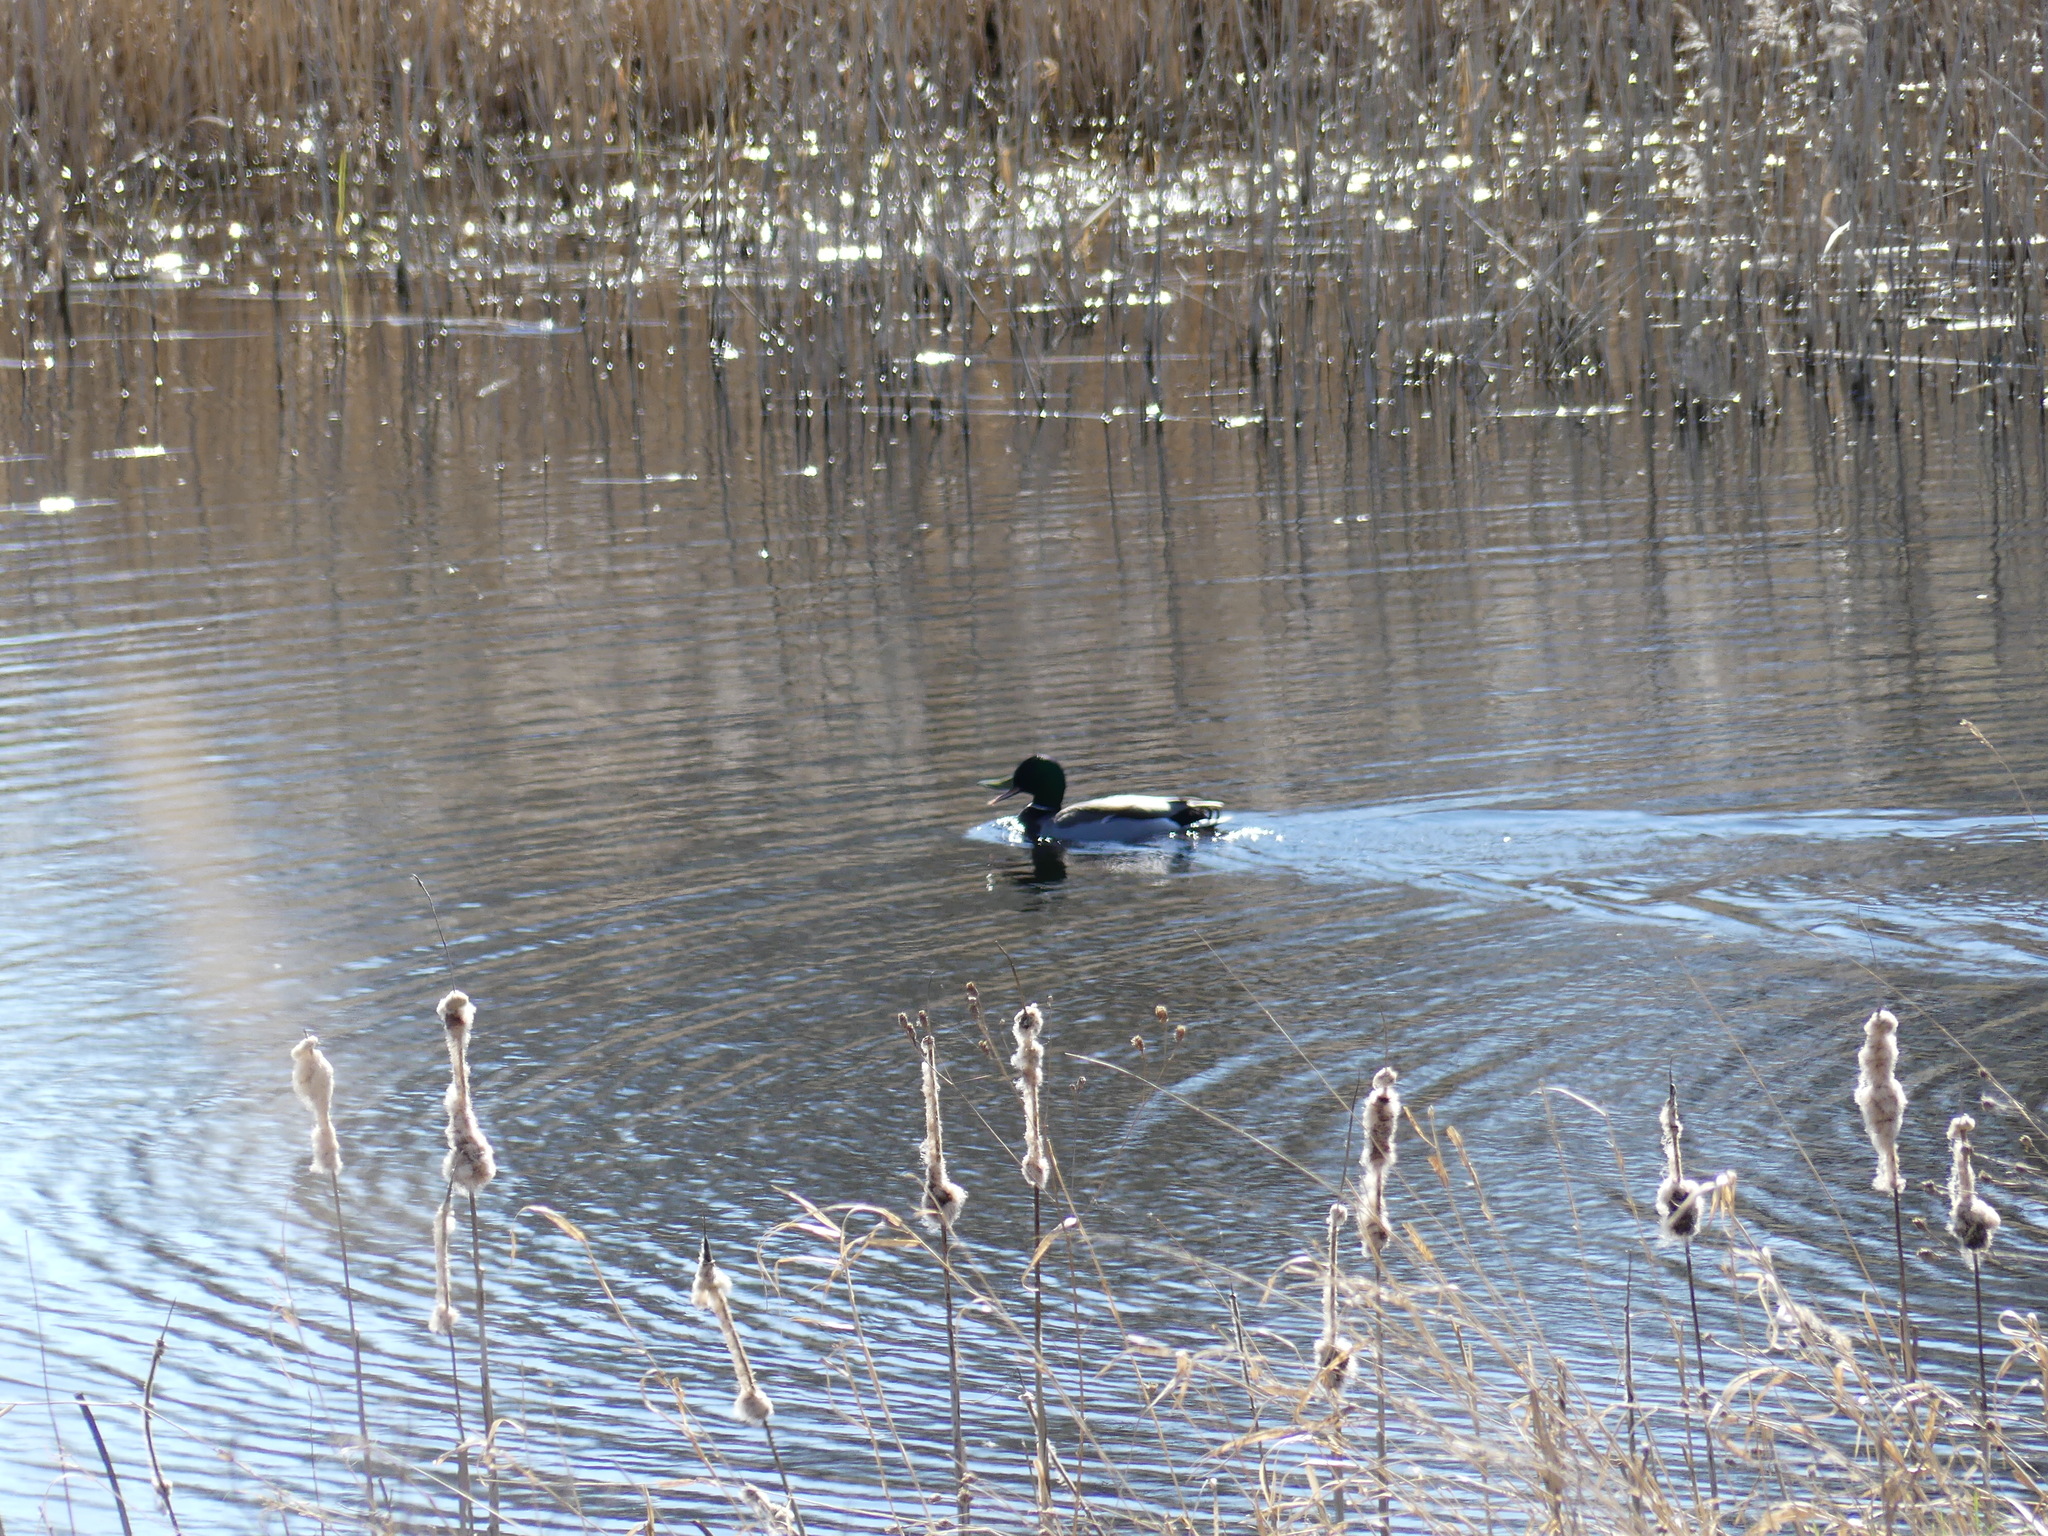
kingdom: Animalia
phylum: Chordata
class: Aves
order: Anseriformes
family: Anatidae
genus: Anas
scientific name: Anas platyrhynchos
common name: Mallard
